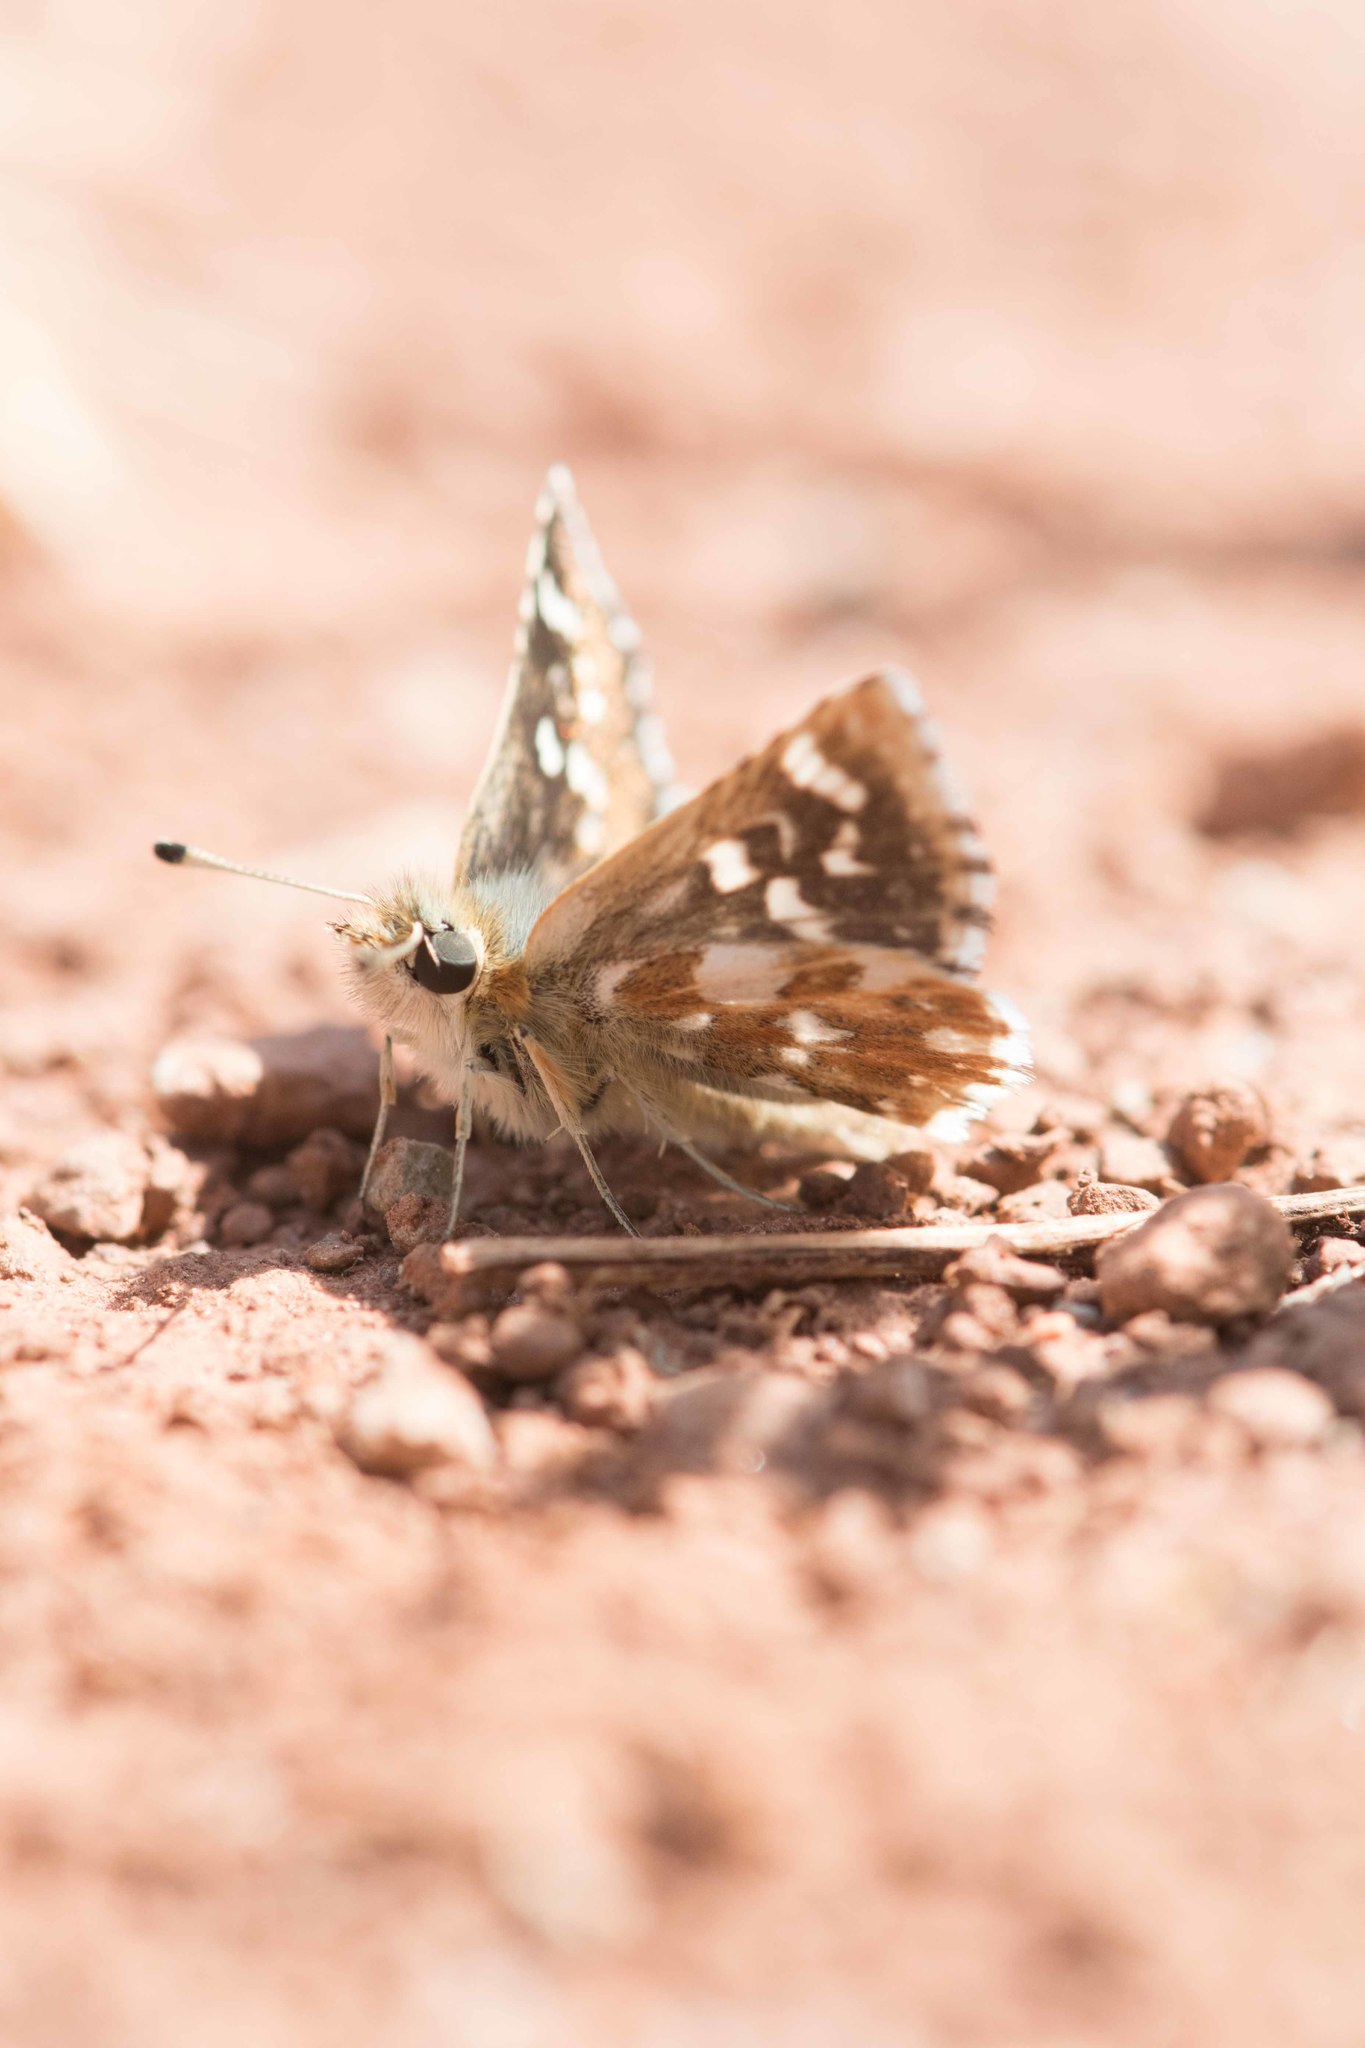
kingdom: Animalia
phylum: Arthropoda
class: Insecta
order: Lepidoptera
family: Hesperiidae
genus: Spialia
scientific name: Spialia sertorius
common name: Red underwing skipper
